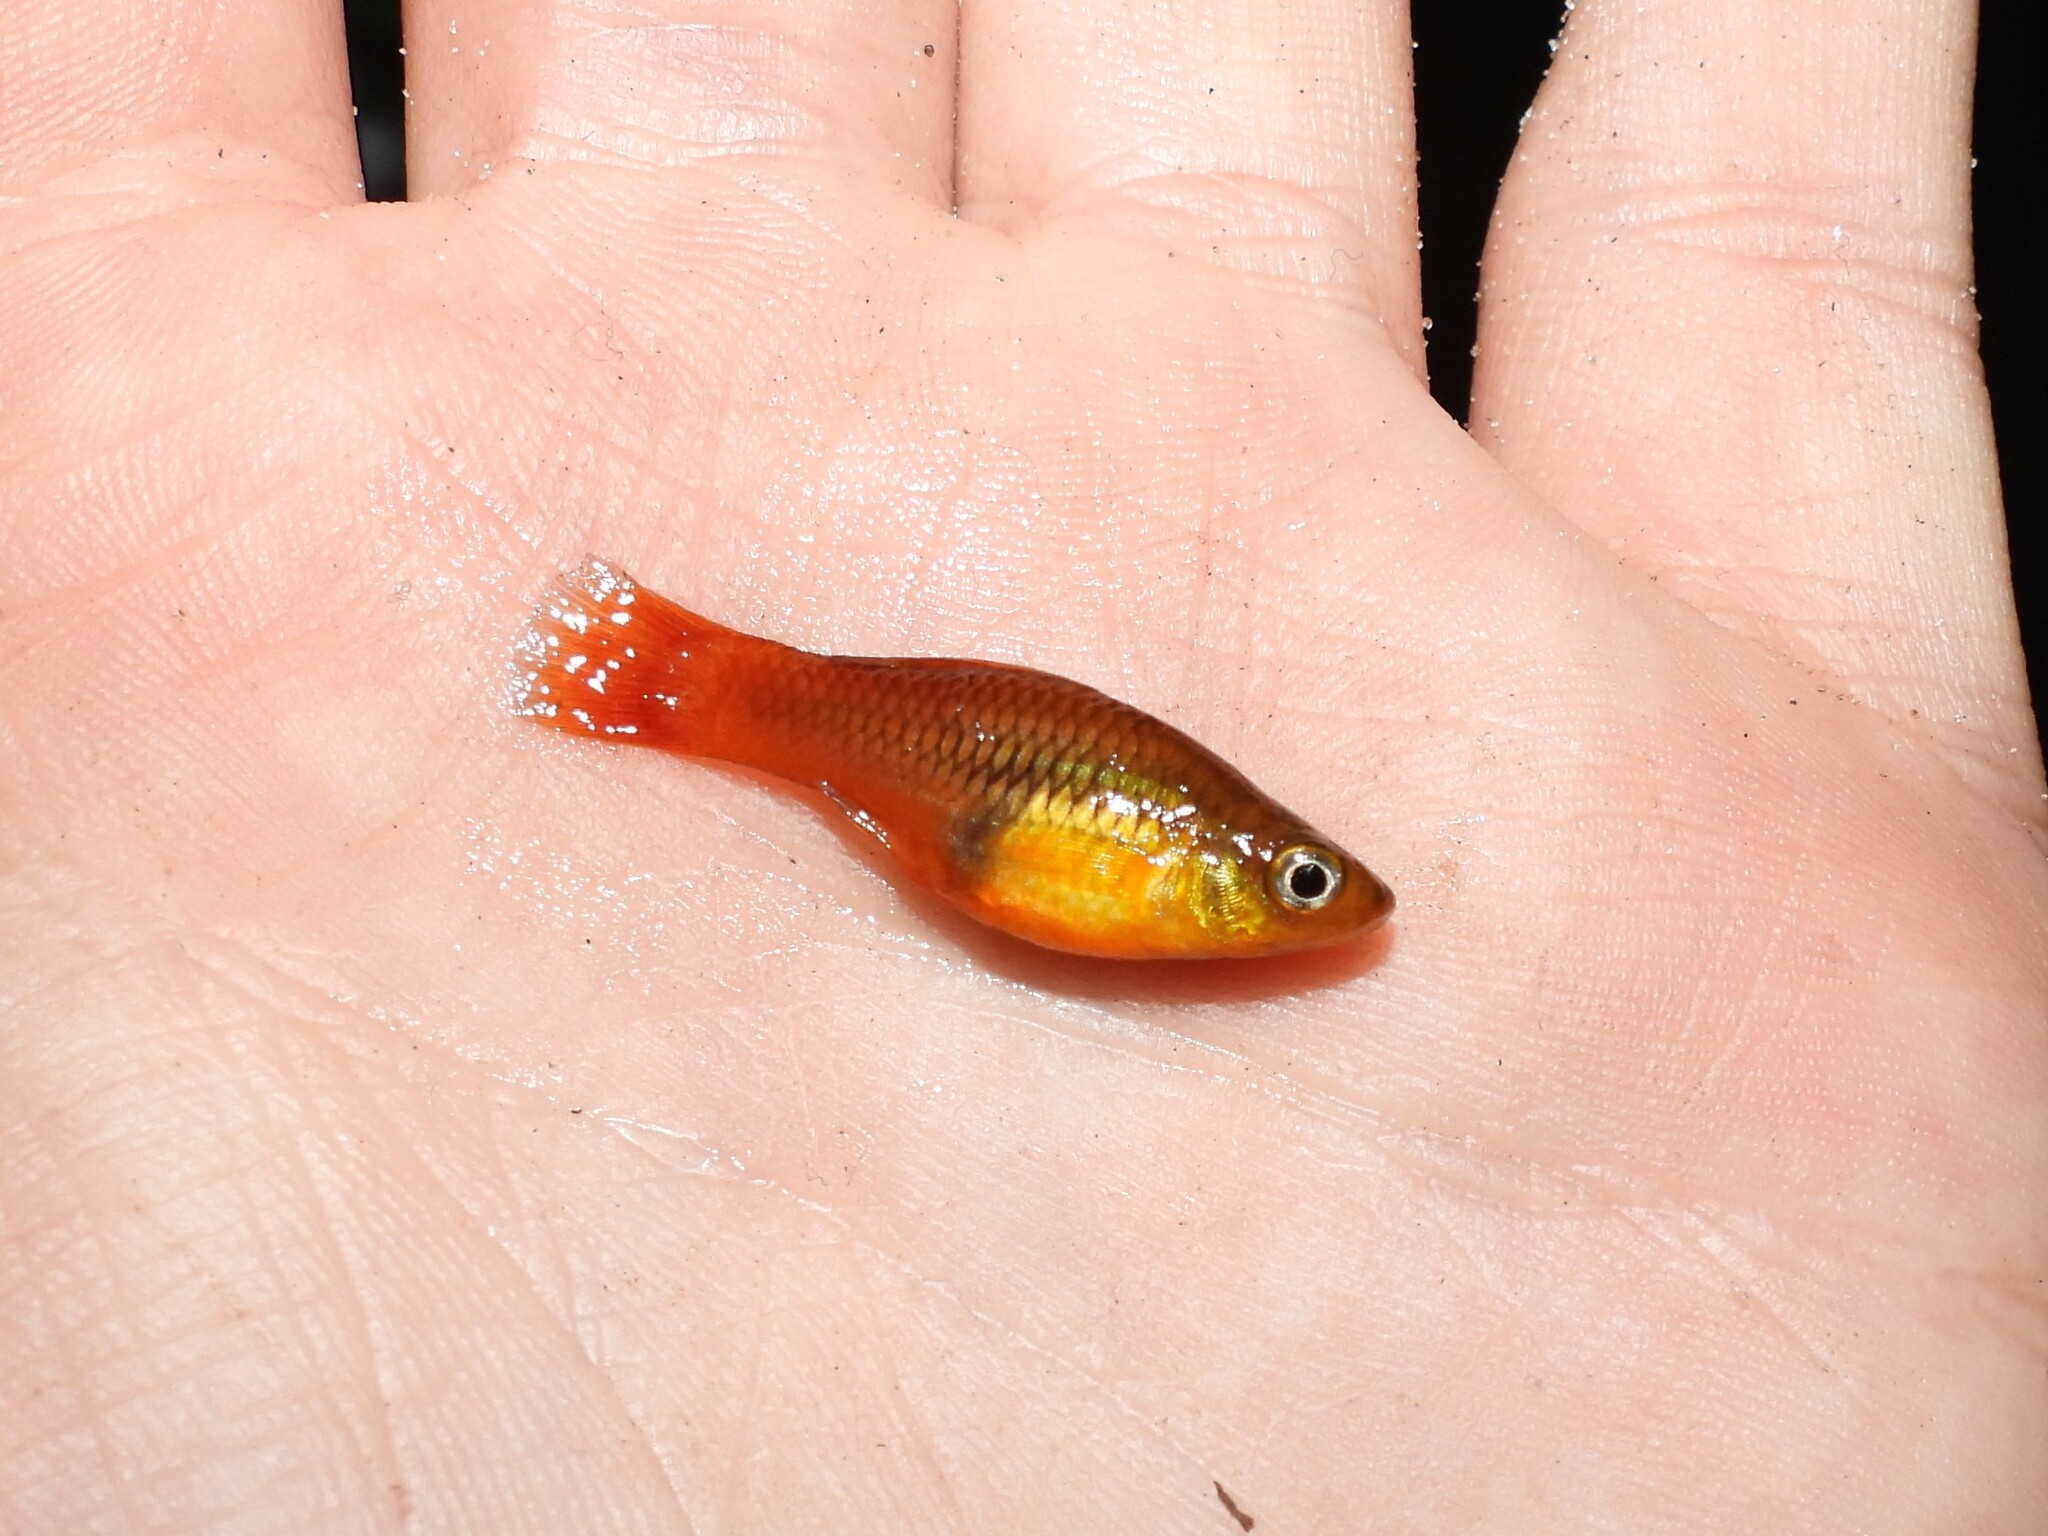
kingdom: Animalia
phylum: Chordata
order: Cyprinodontiformes
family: Poeciliidae
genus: Xiphophorus
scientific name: Xiphophorus variatus
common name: Variable platyfish
